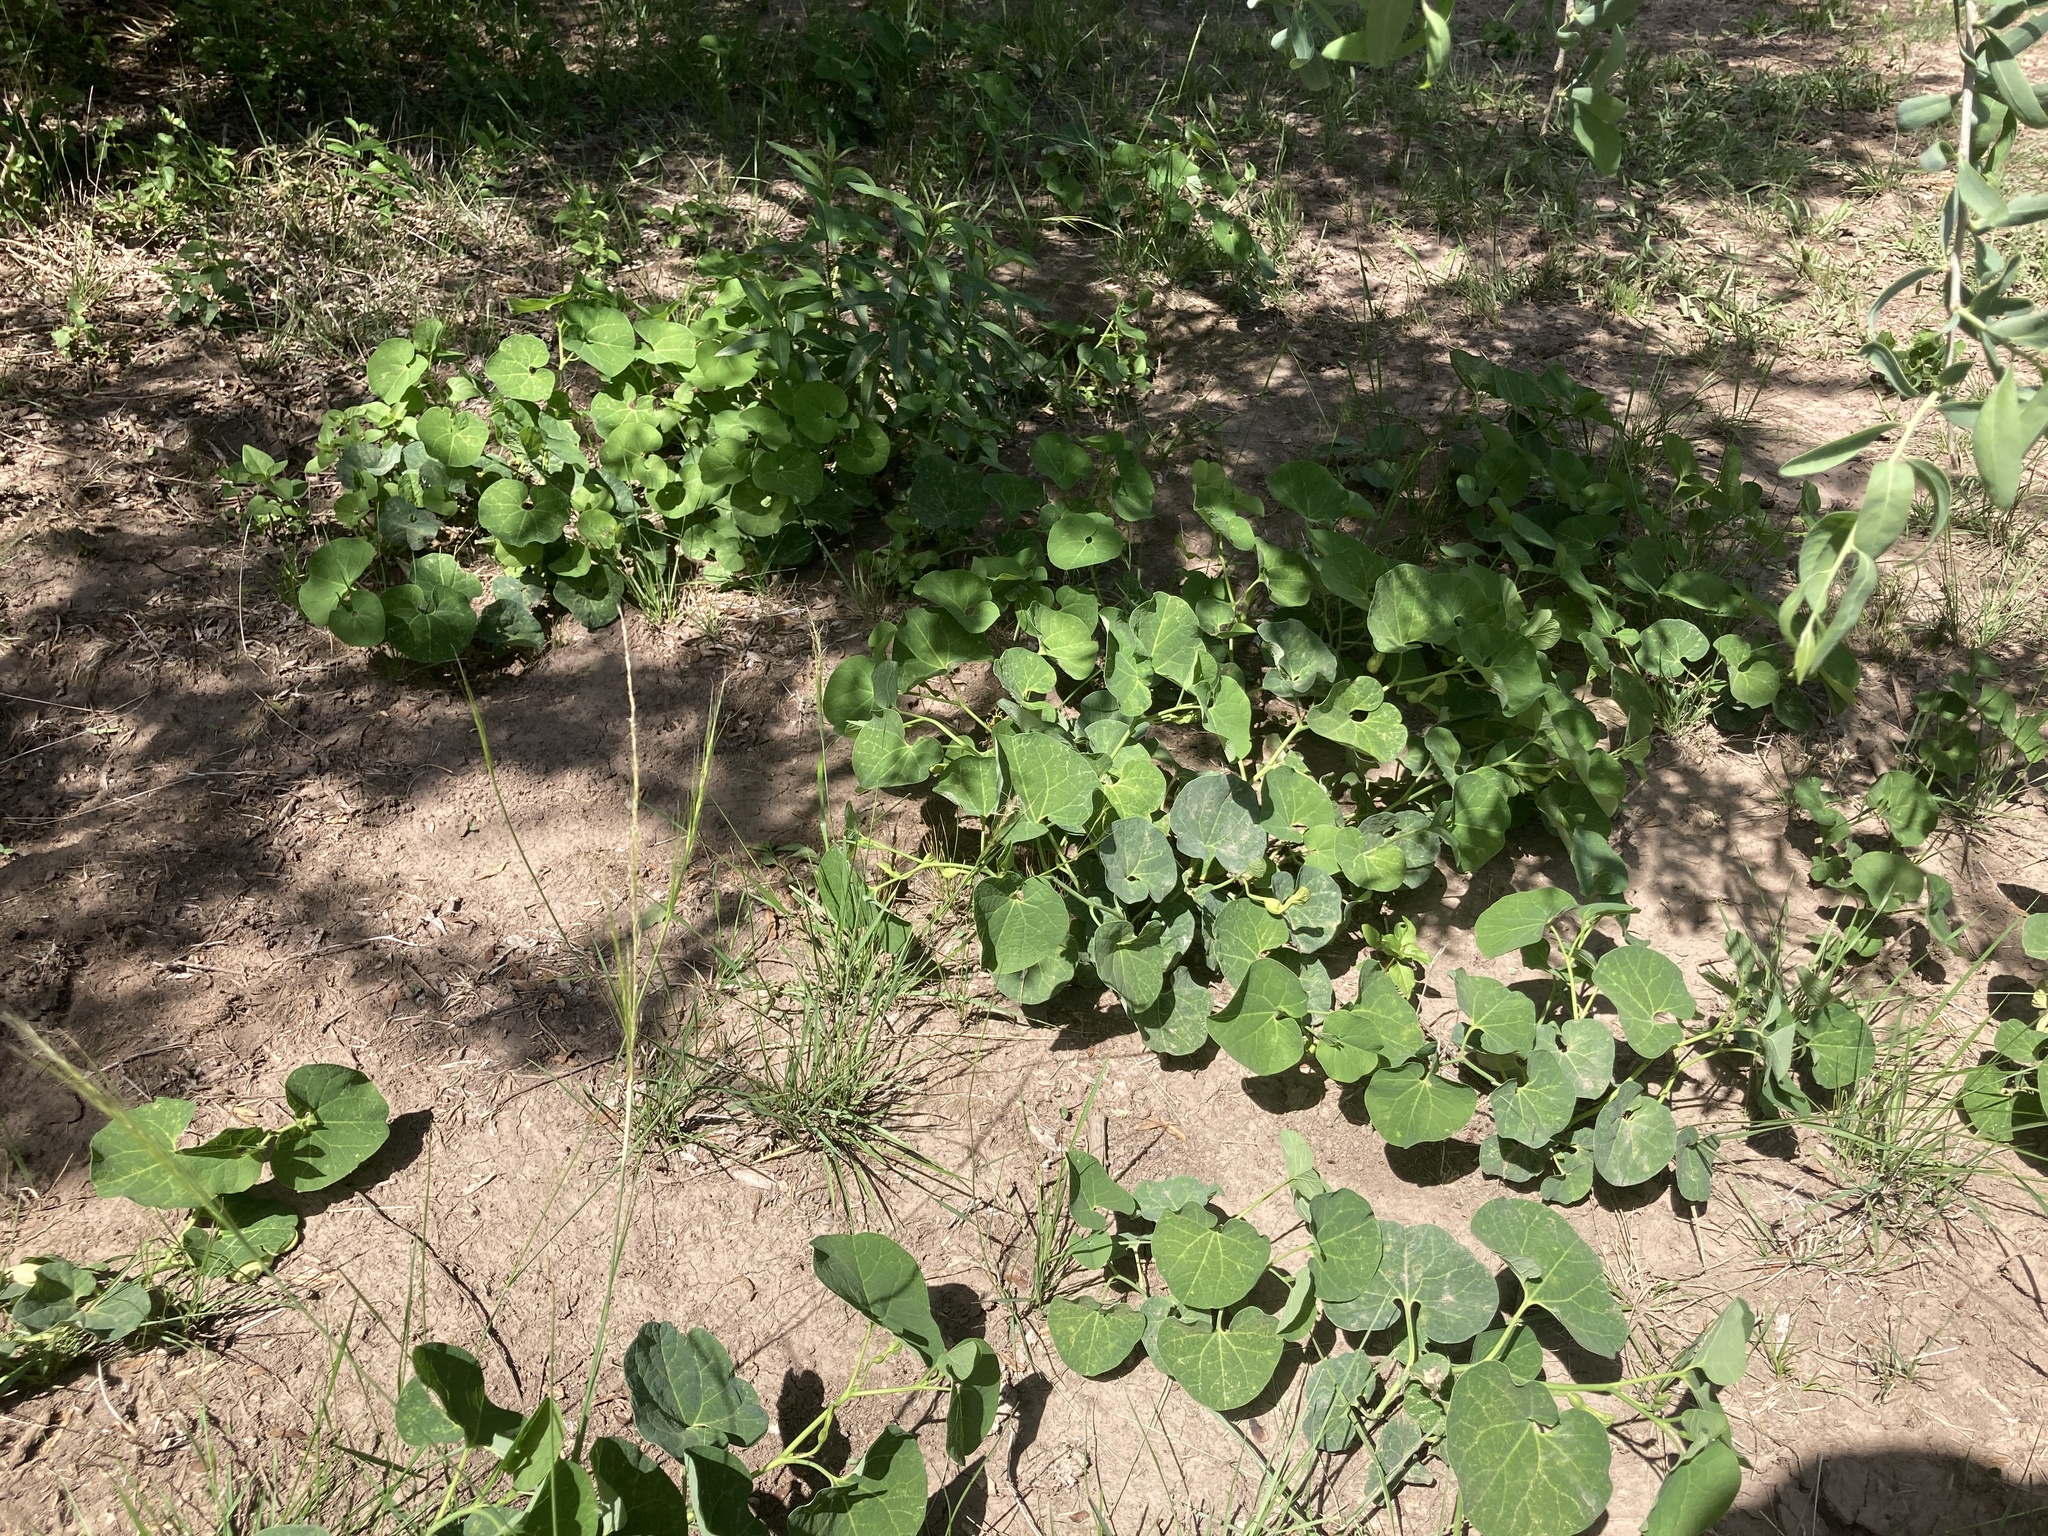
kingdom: Plantae
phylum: Tracheophyta
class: Magnoliopsida
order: Piperales
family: Aristolochiaceae
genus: Aristolochia
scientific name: Aristolochia fimbriata
